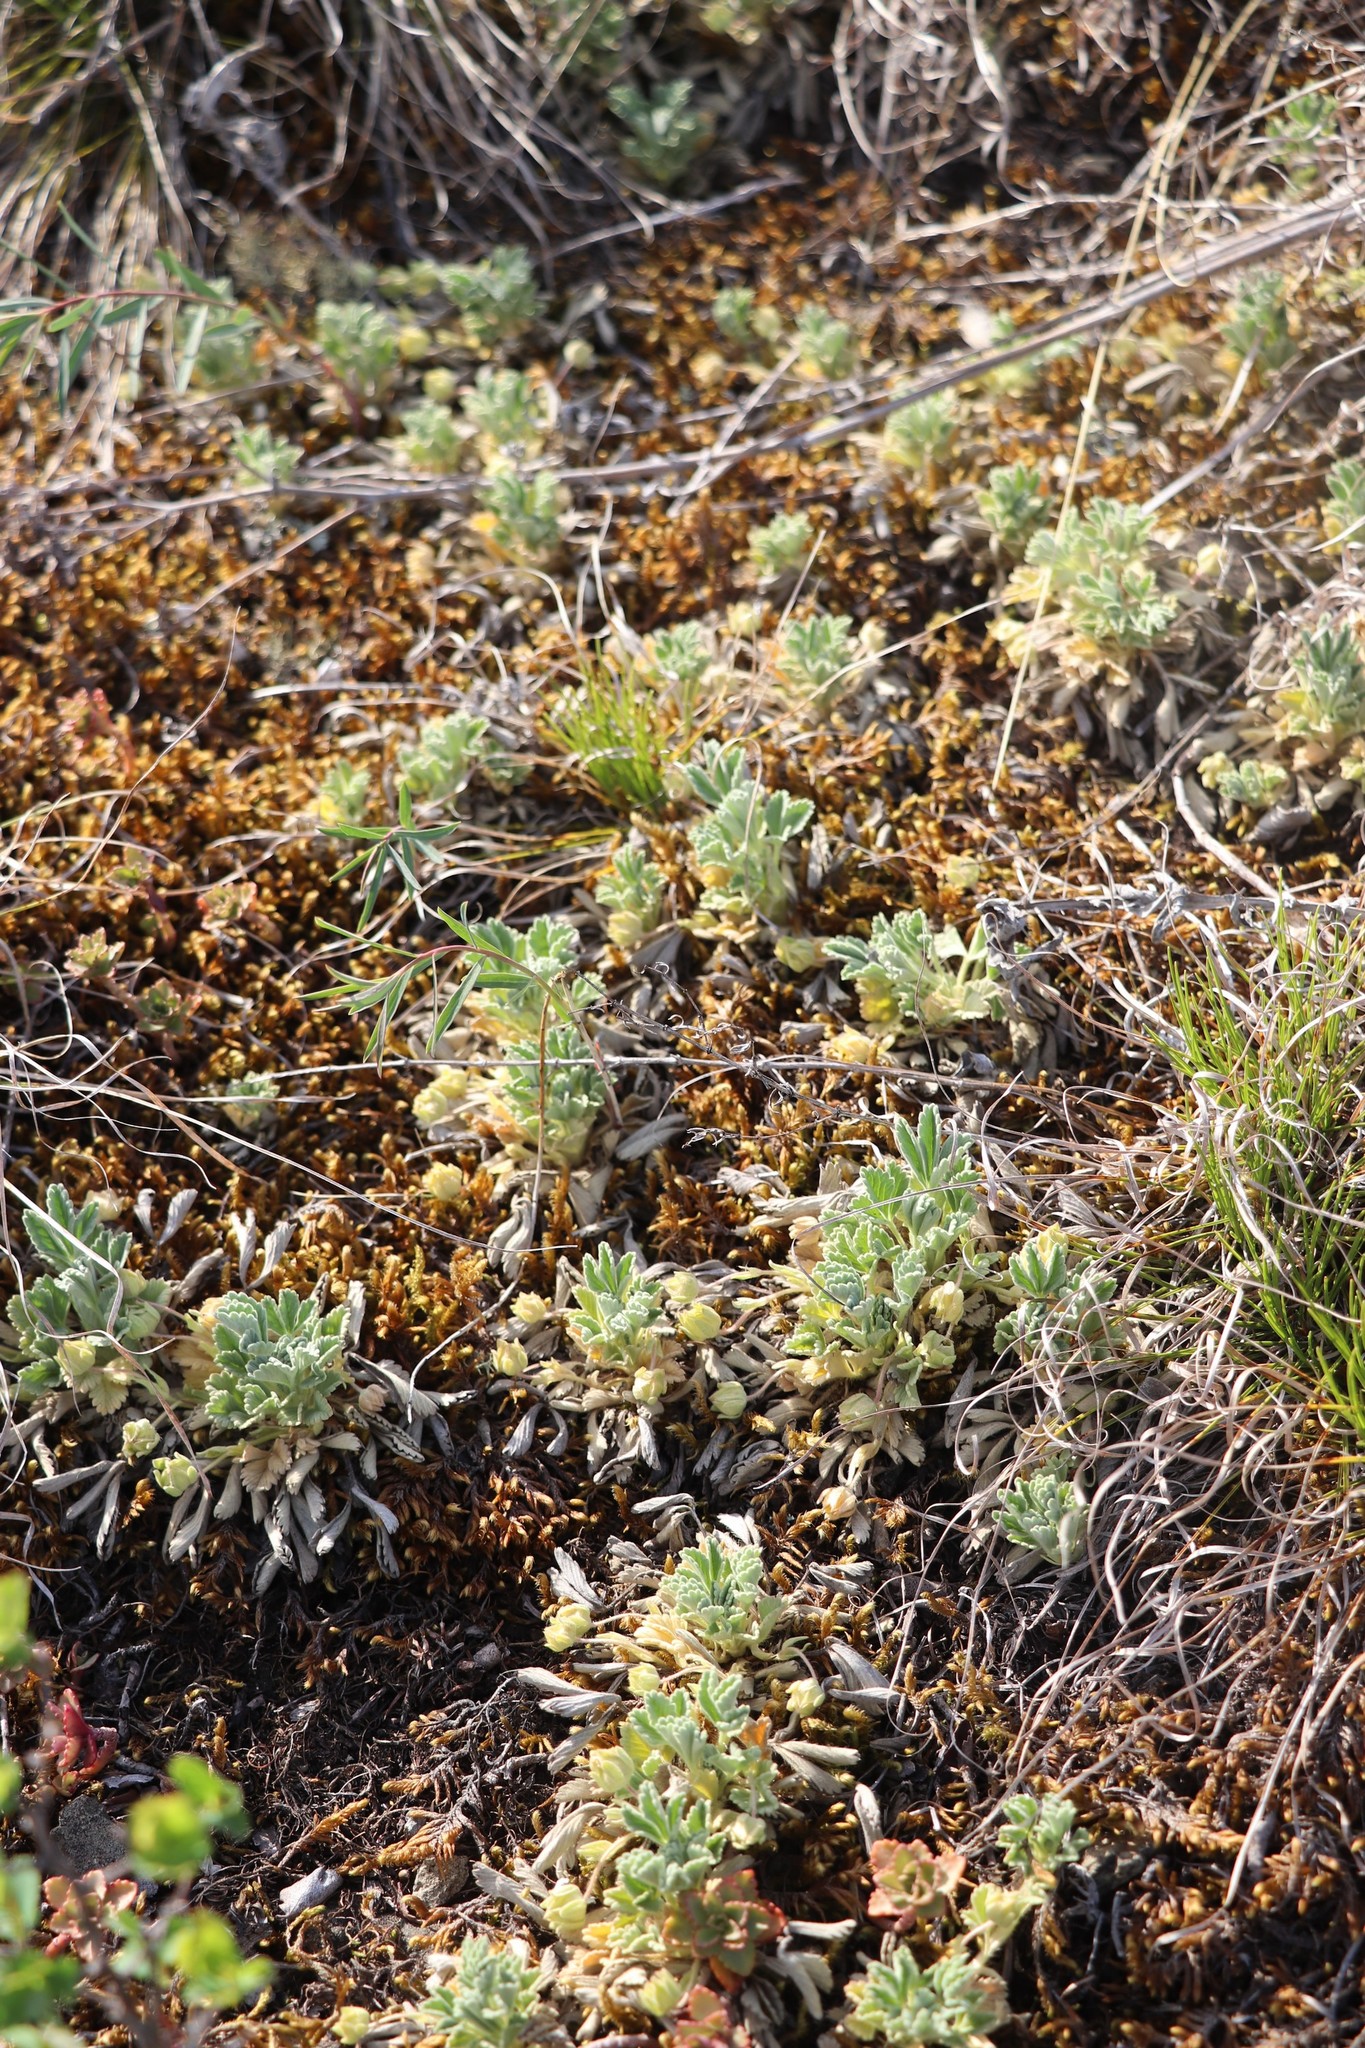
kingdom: Plantae
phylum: Tracheophyta
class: Magnoliopsida
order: Rosales
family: Rosaceae
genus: Potentilla
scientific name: Potentilla acaulis
